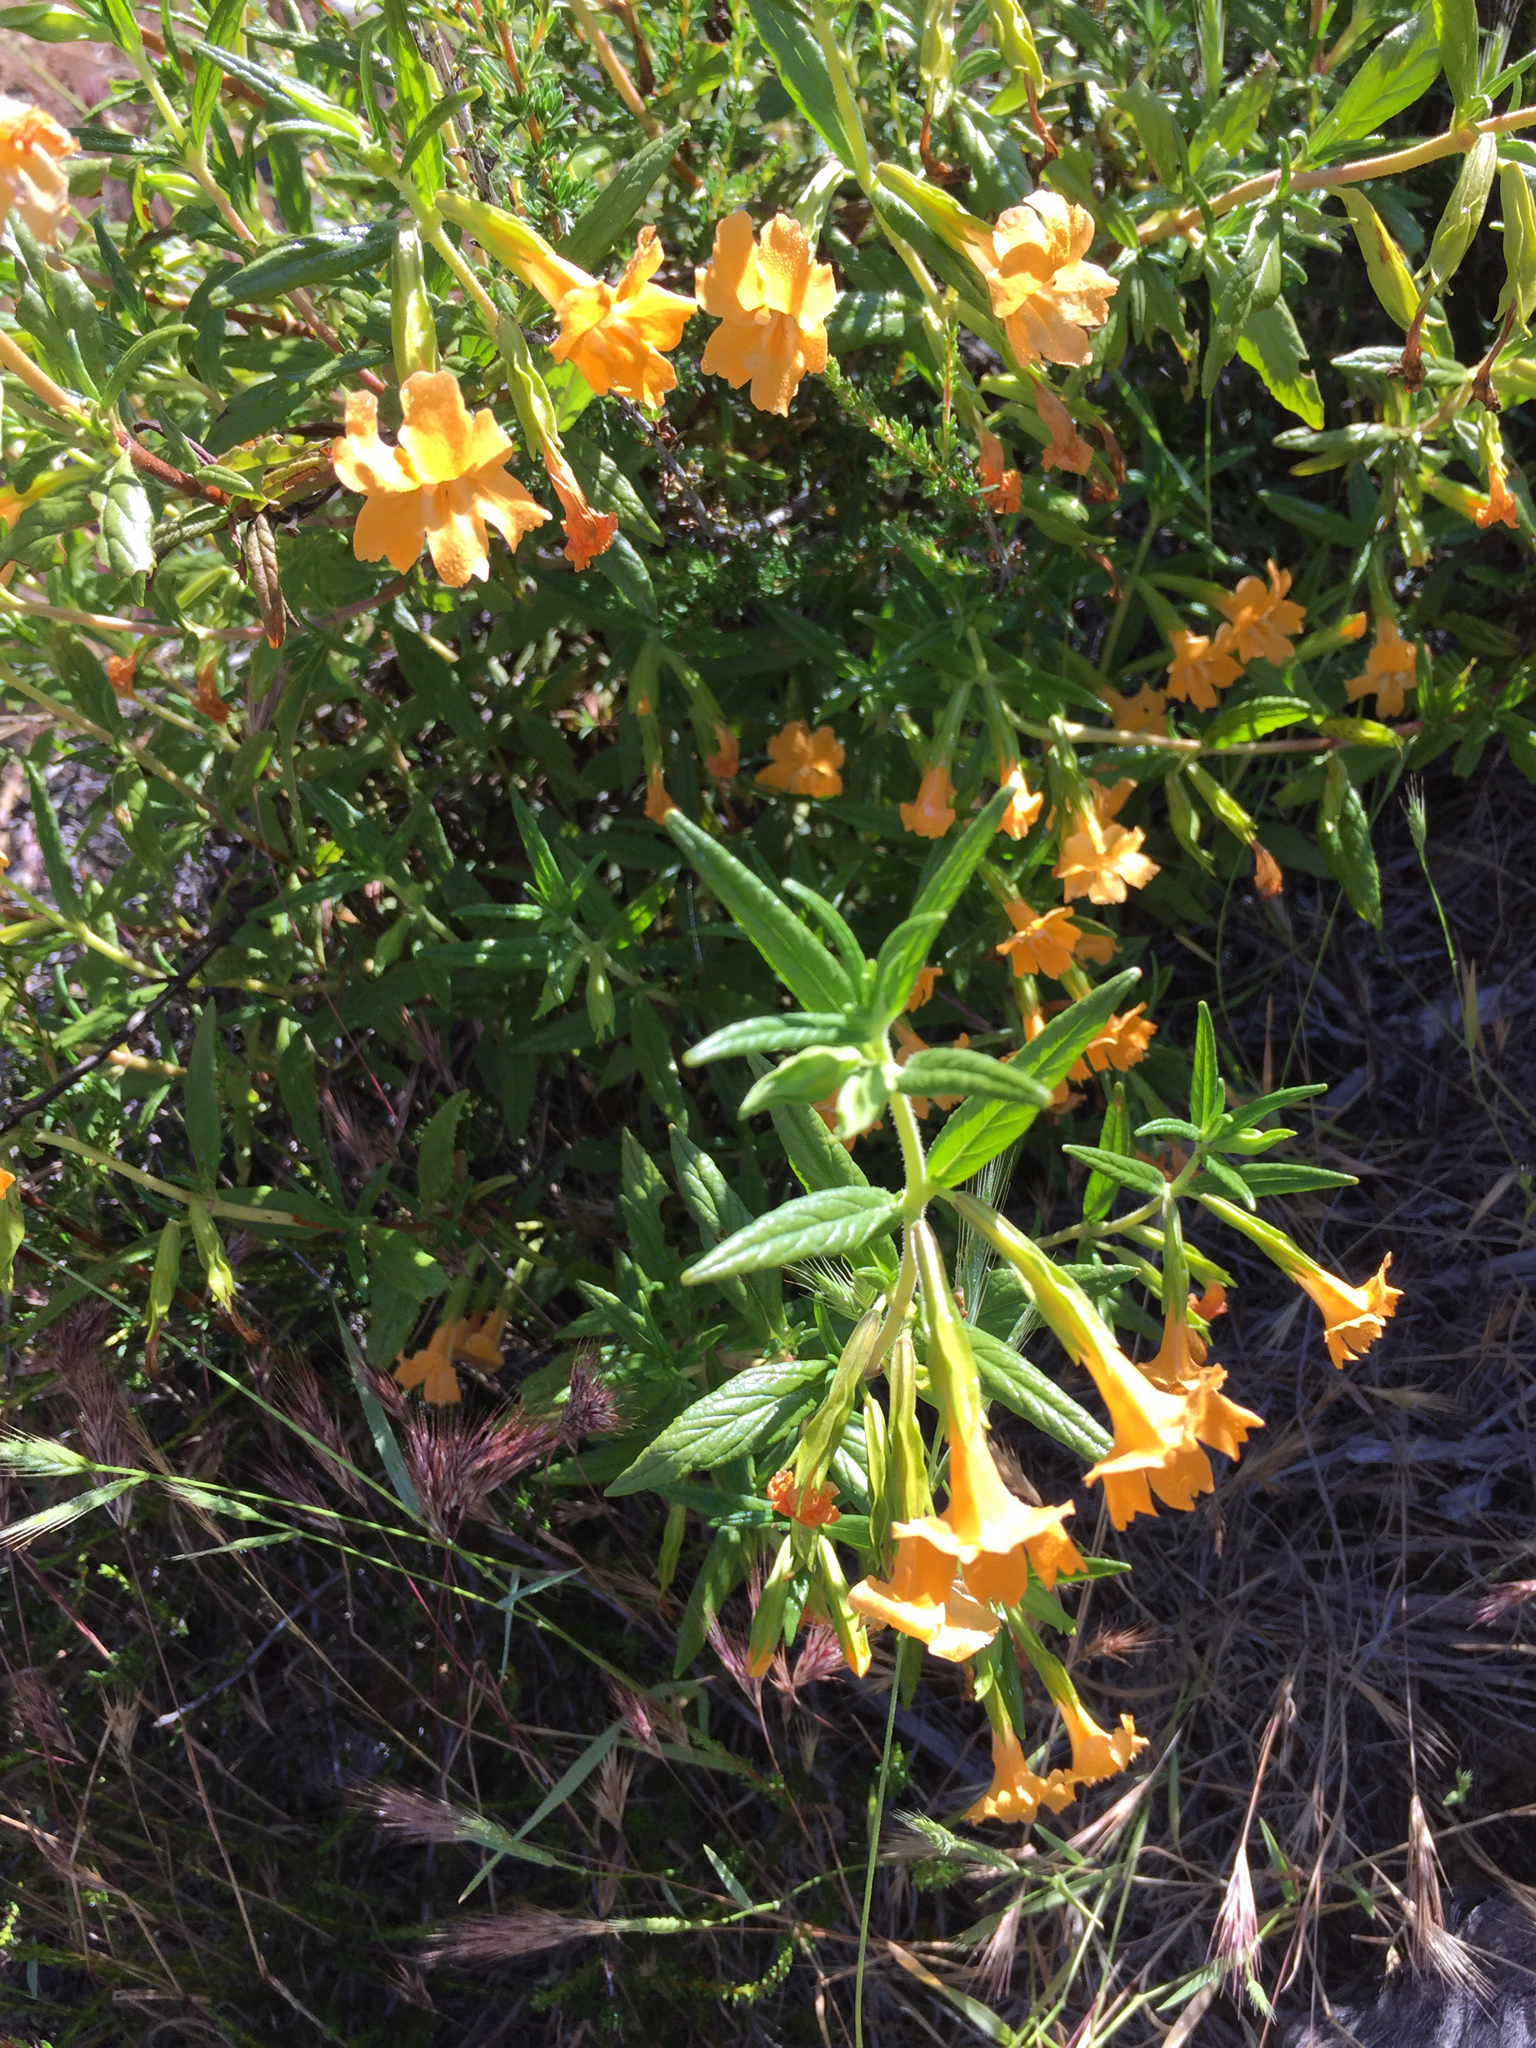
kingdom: Plantae
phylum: Tracheophyta
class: Magnoliopsida
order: Lamiales
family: Phrymaceae
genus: Diplacus
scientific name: Diplacus aurantiacus
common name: Bush monkey-flower
